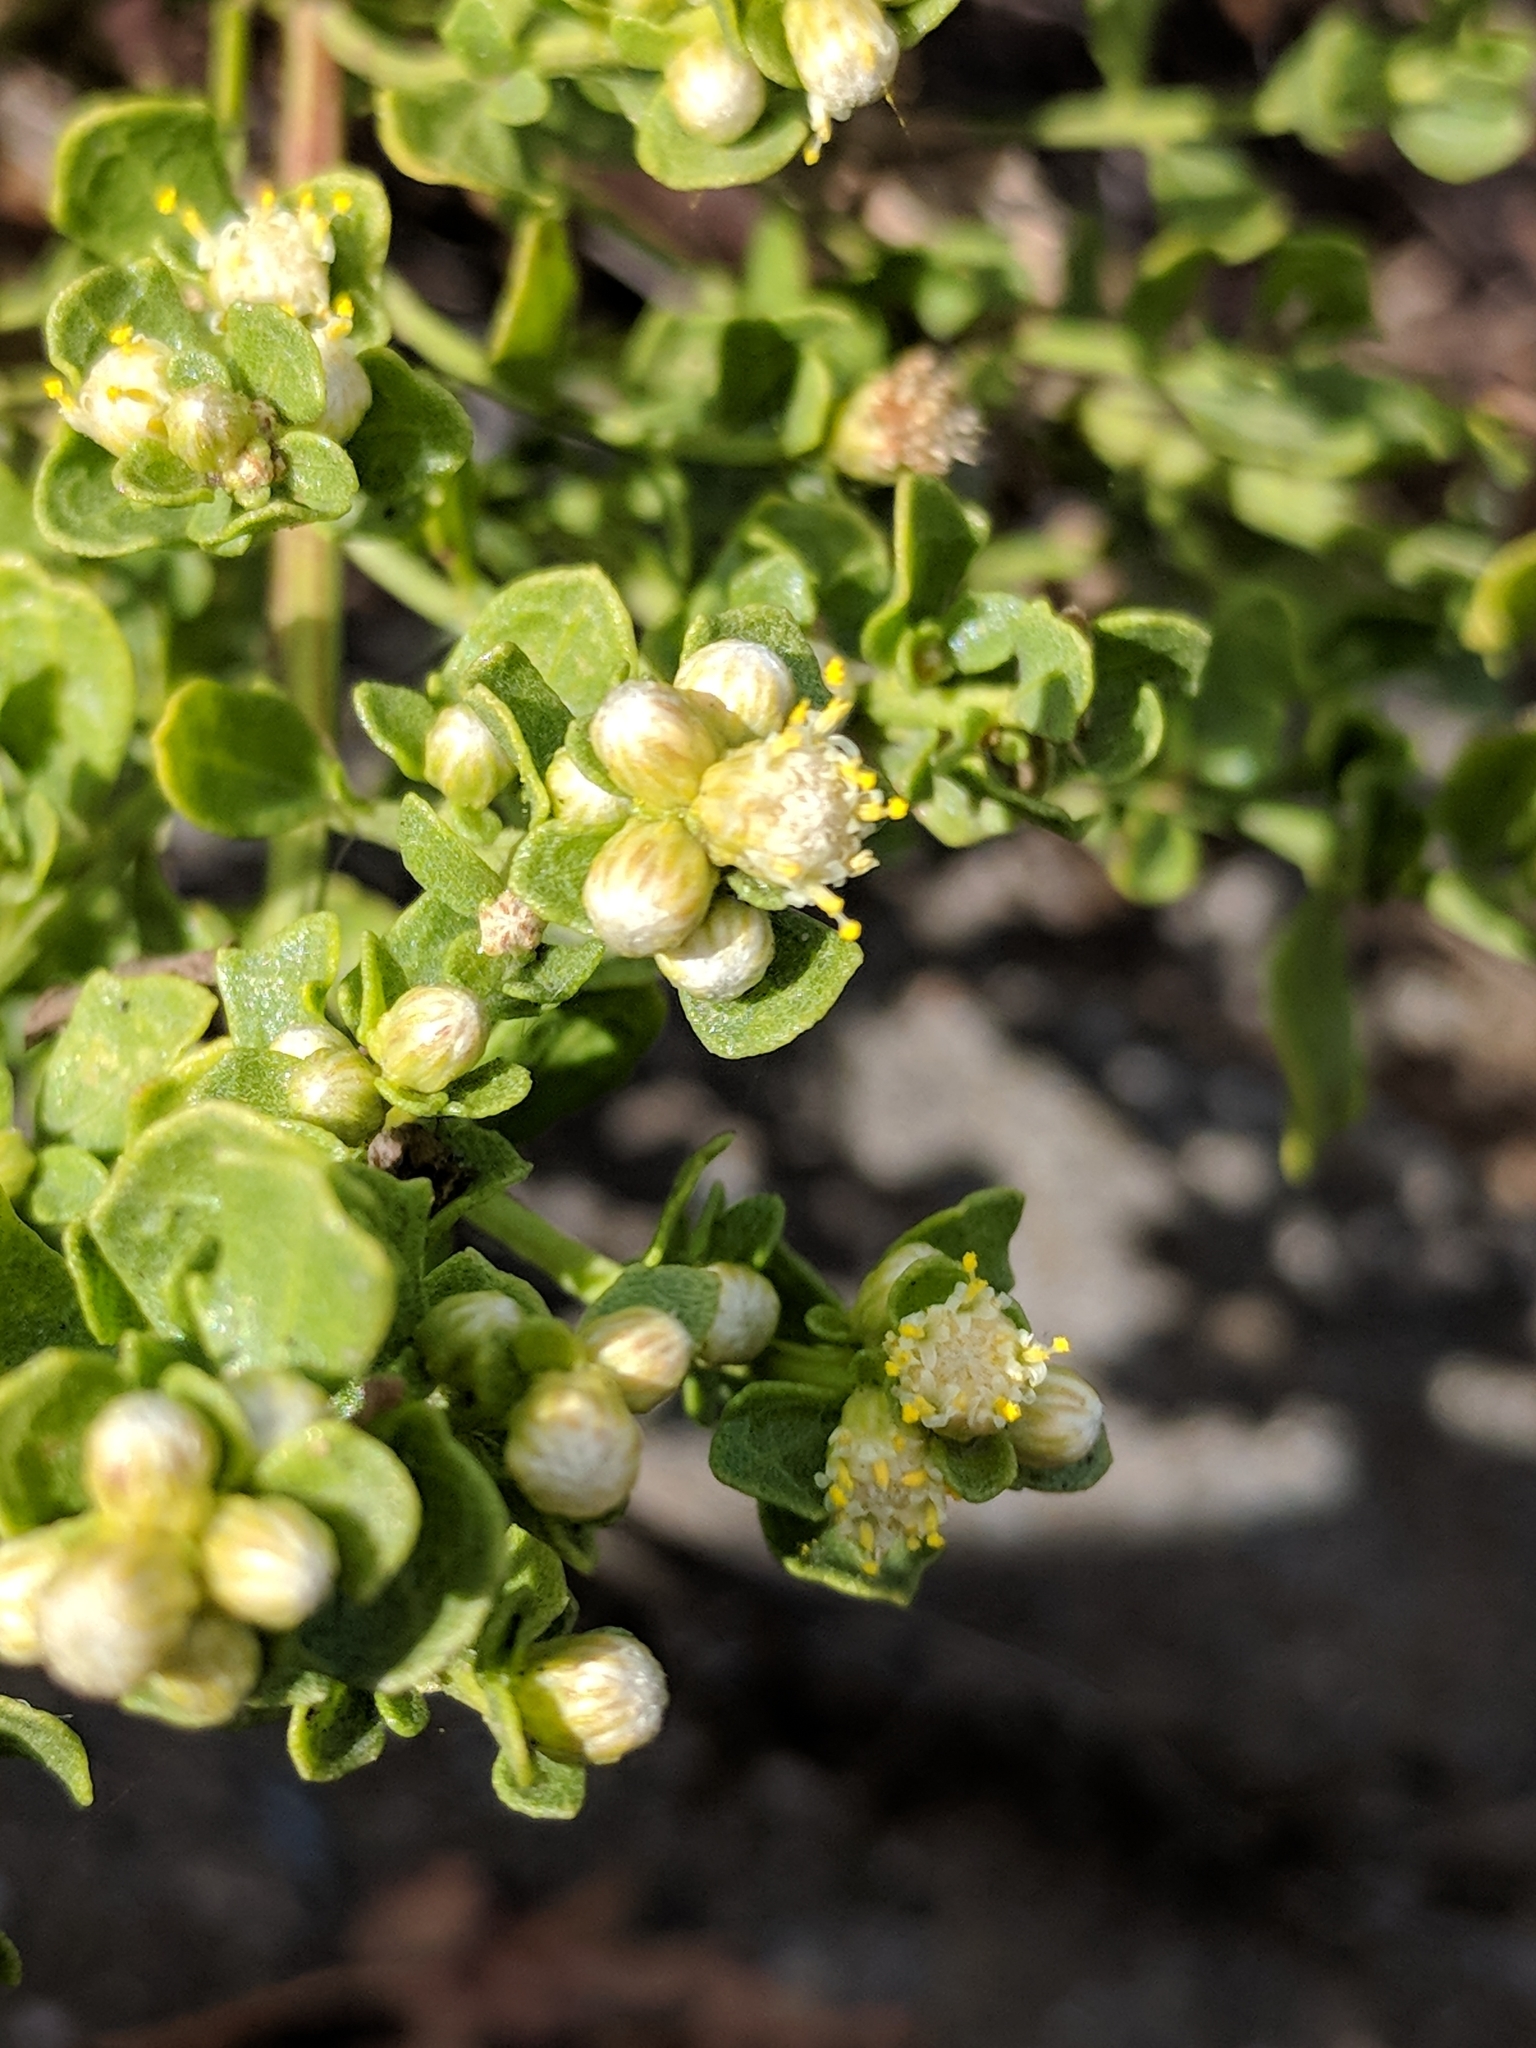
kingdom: Plantae
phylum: Tracheophyta
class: Magnoliopsida
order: Asterales
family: Asteraceae
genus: Baccharis
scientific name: Baccharis pilularis
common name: Coyotebrush
